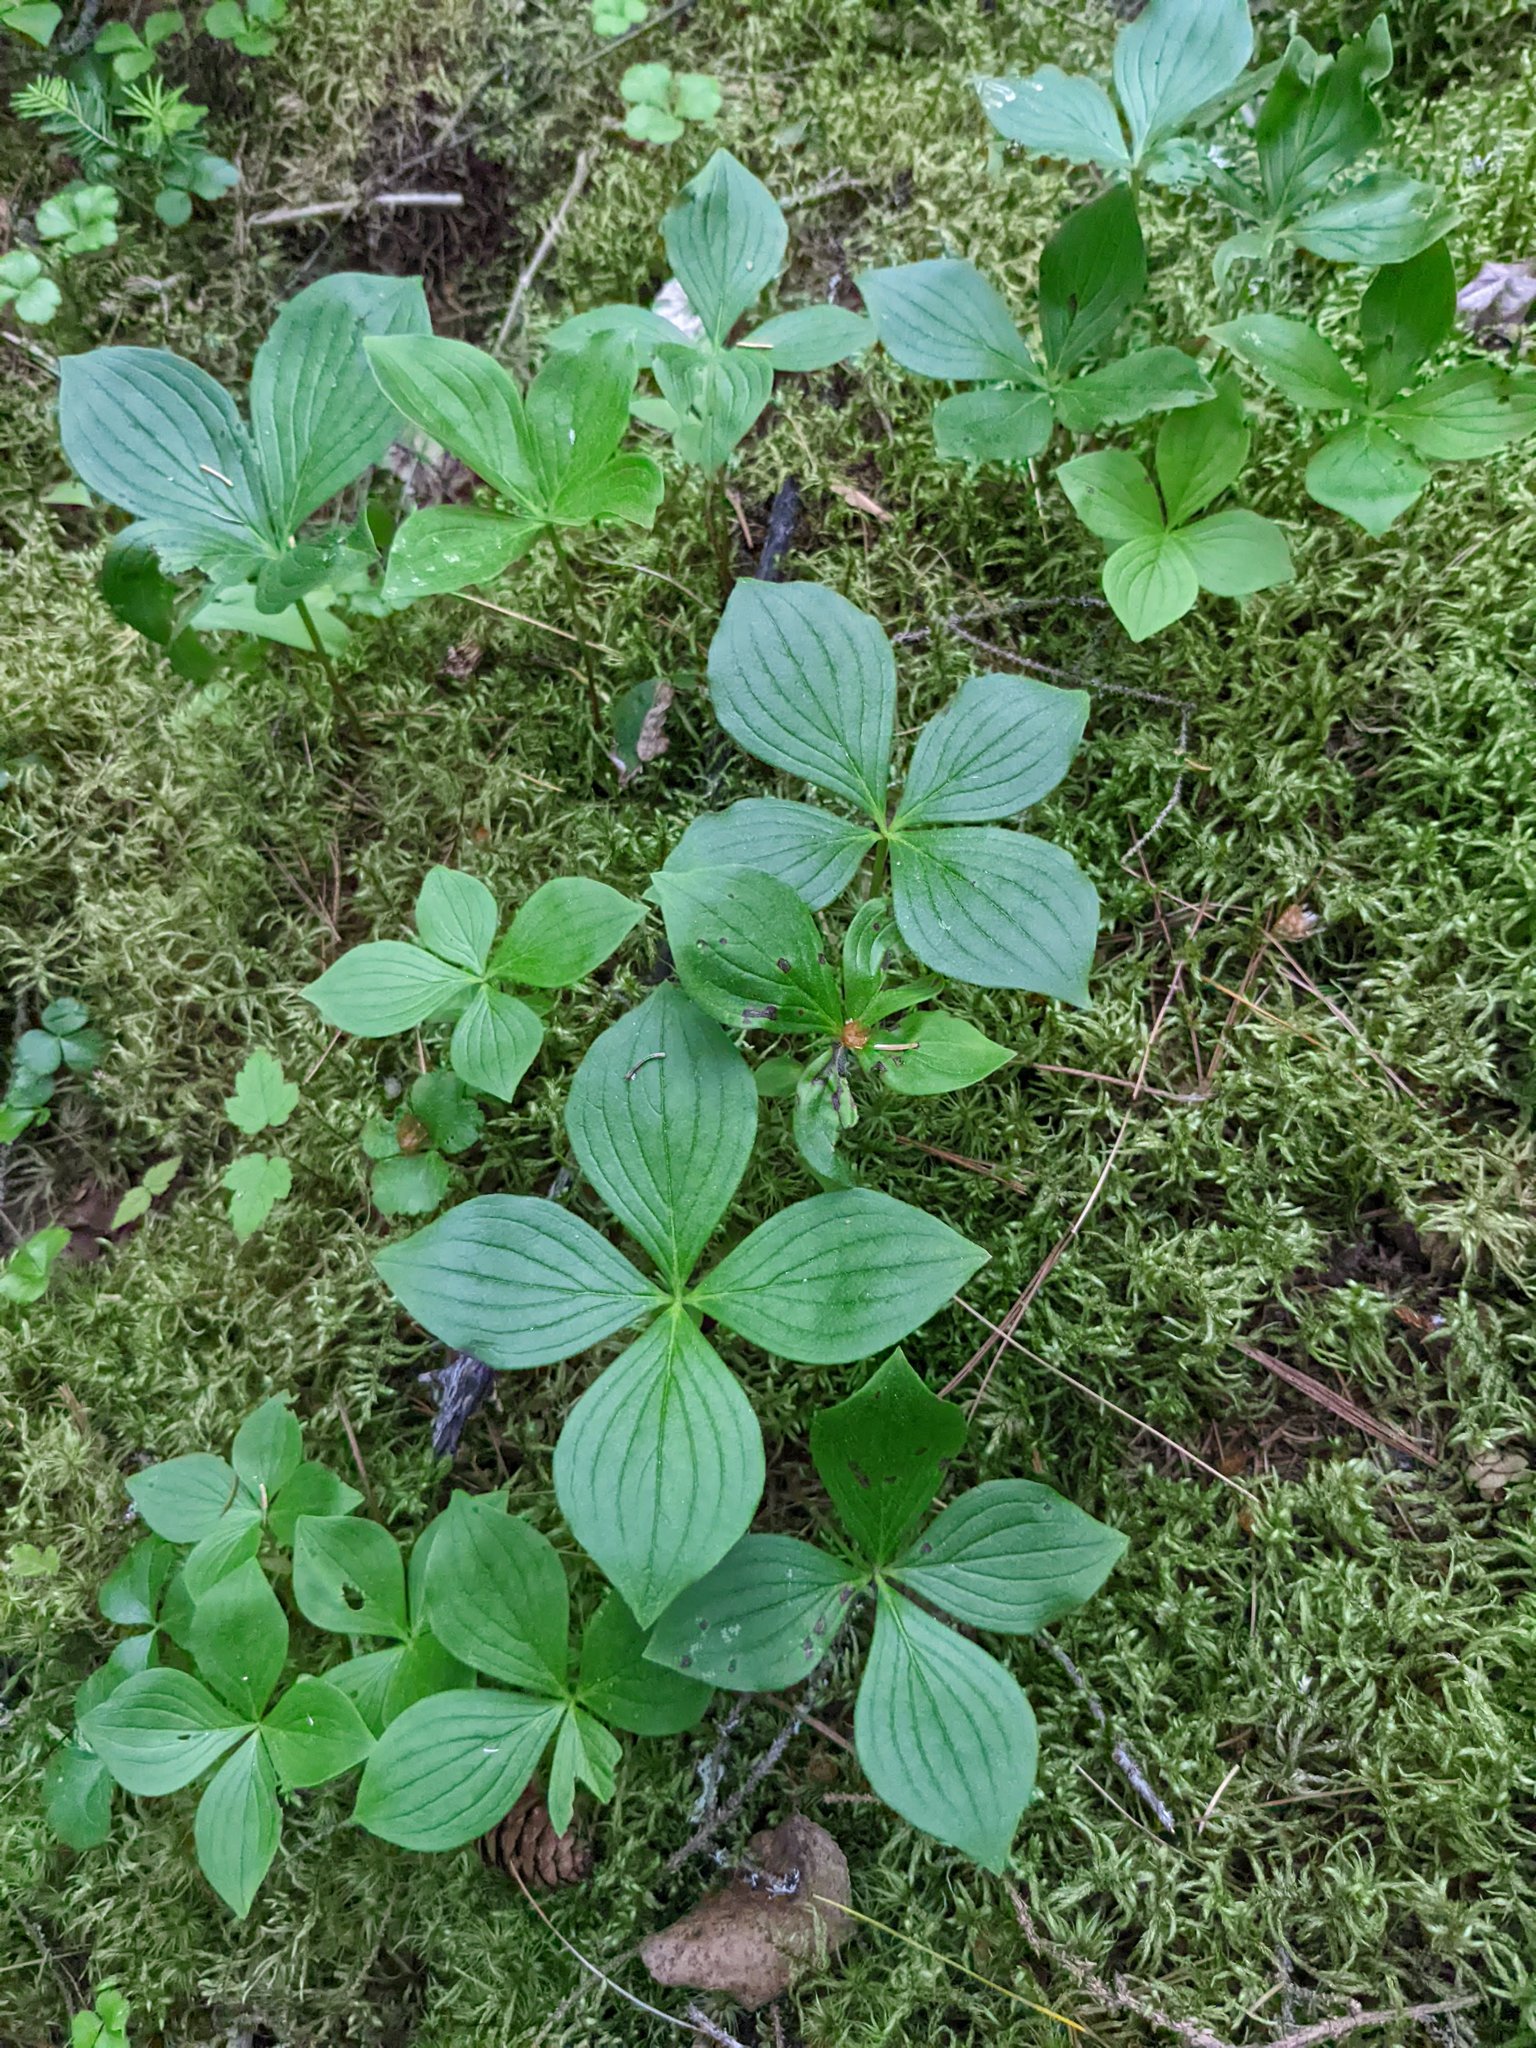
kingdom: Plantae
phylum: Tracheophyta
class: Magnoliopsida
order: Cornales
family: Cornaceae
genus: Cornus
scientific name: Cornus canadensis
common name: Creeping dogwood
